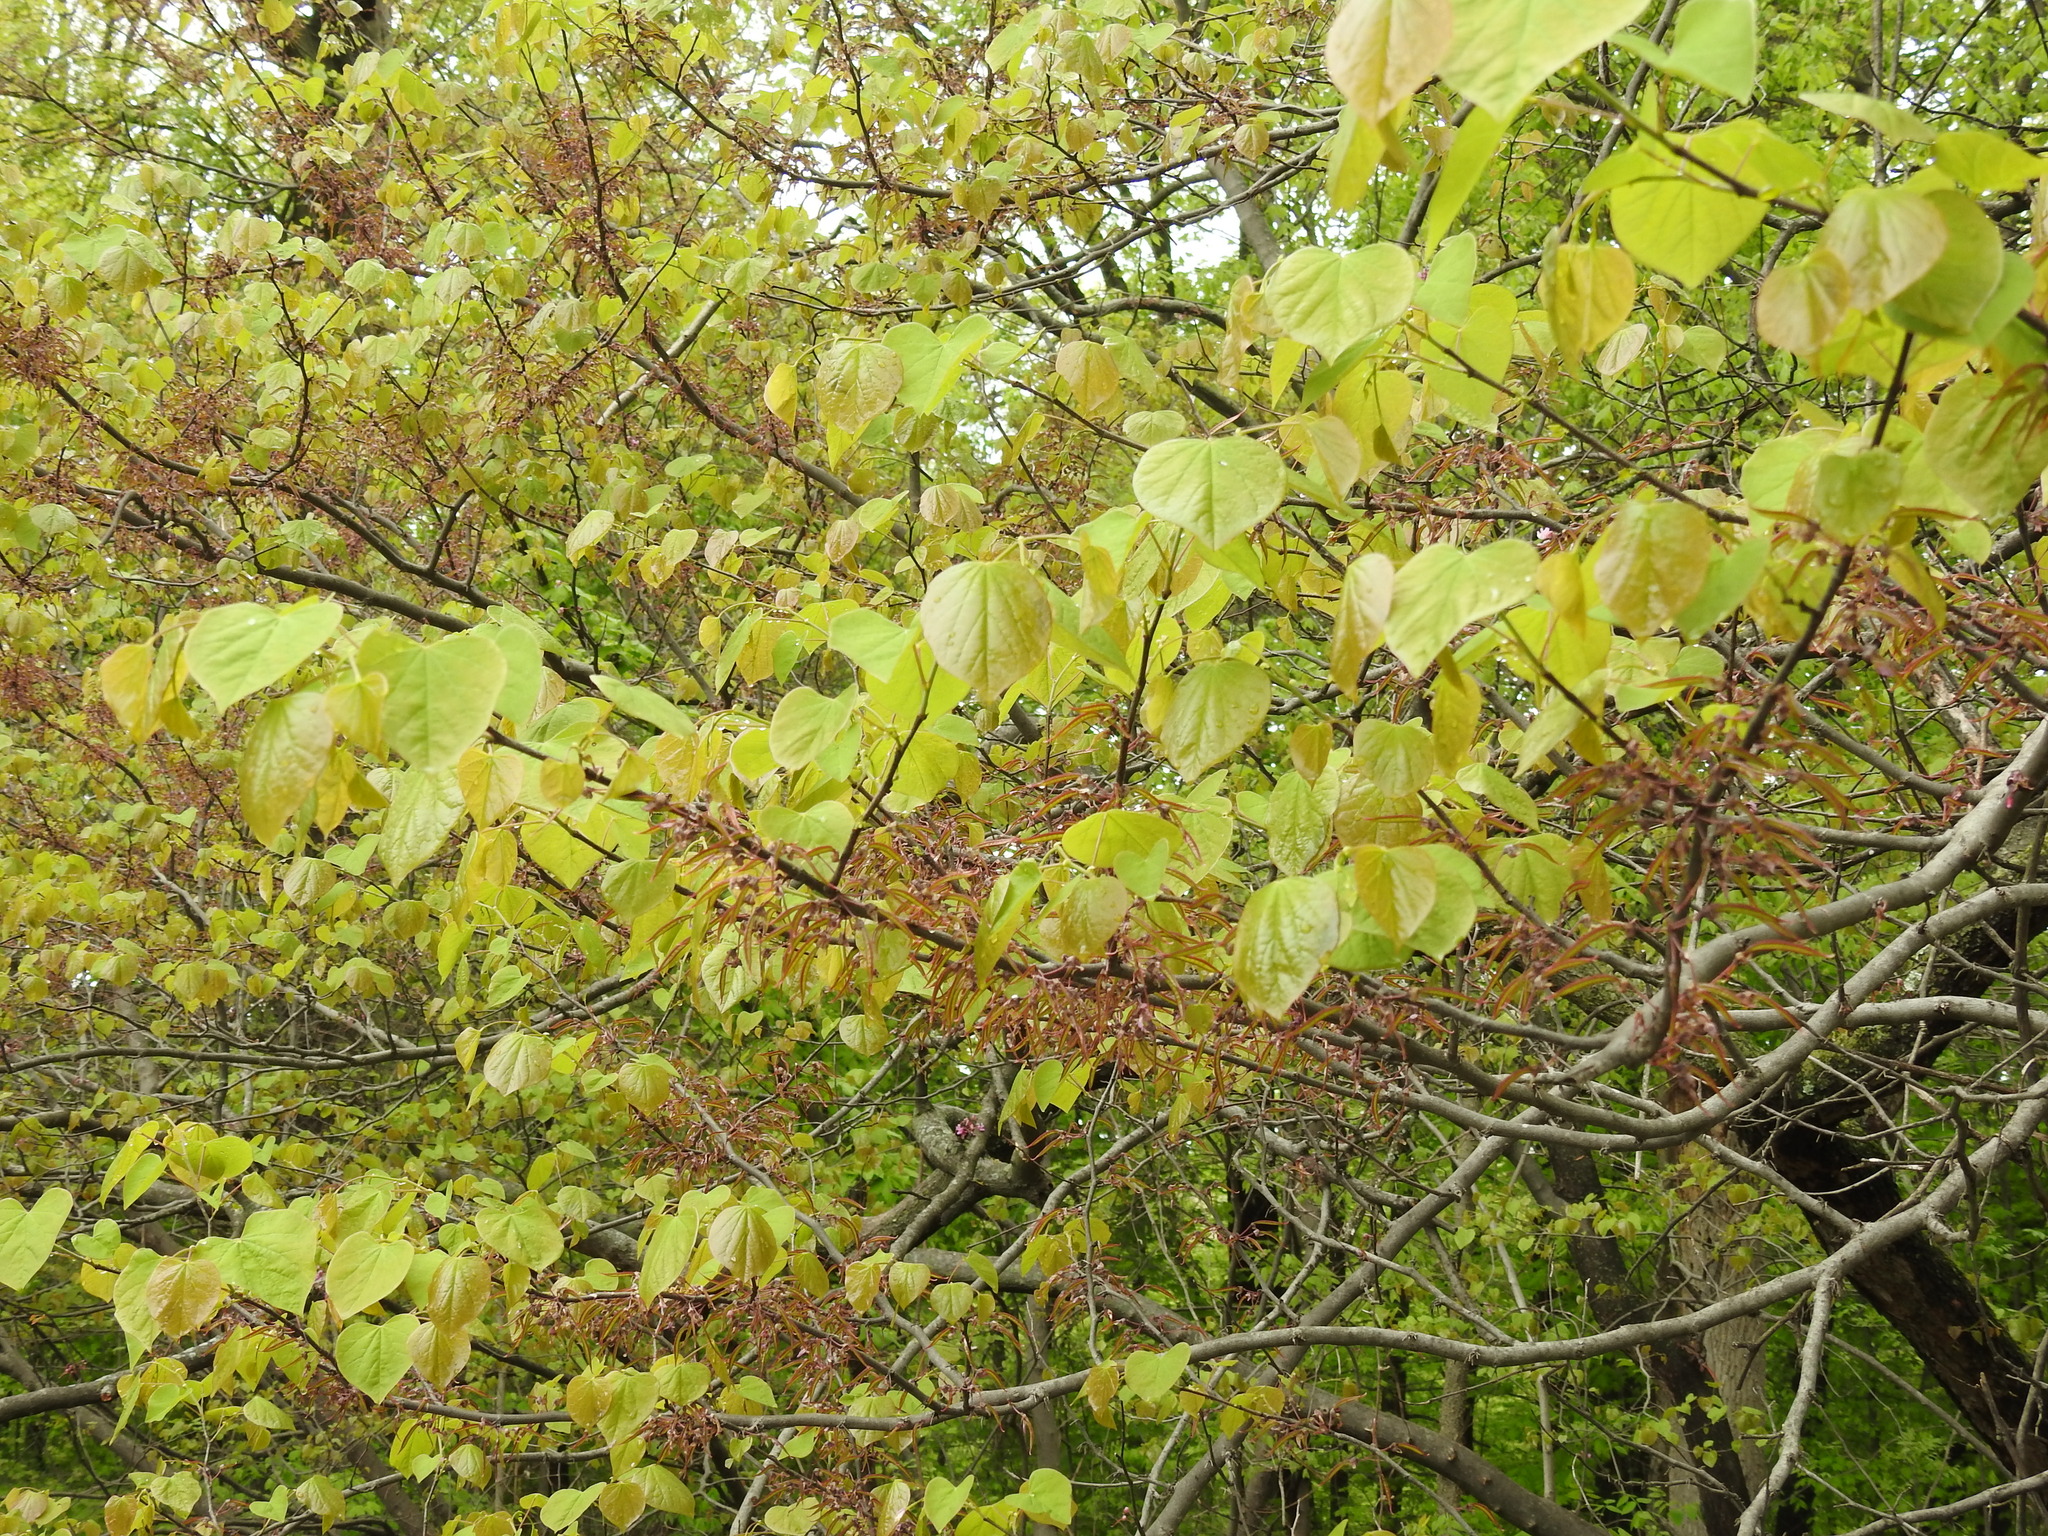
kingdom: Plantae
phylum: Tracheophyta
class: Magnoliopsida
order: Fabales
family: Fabaceae
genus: Cercis
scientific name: Cercis canadensis
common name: Eastern redbud
